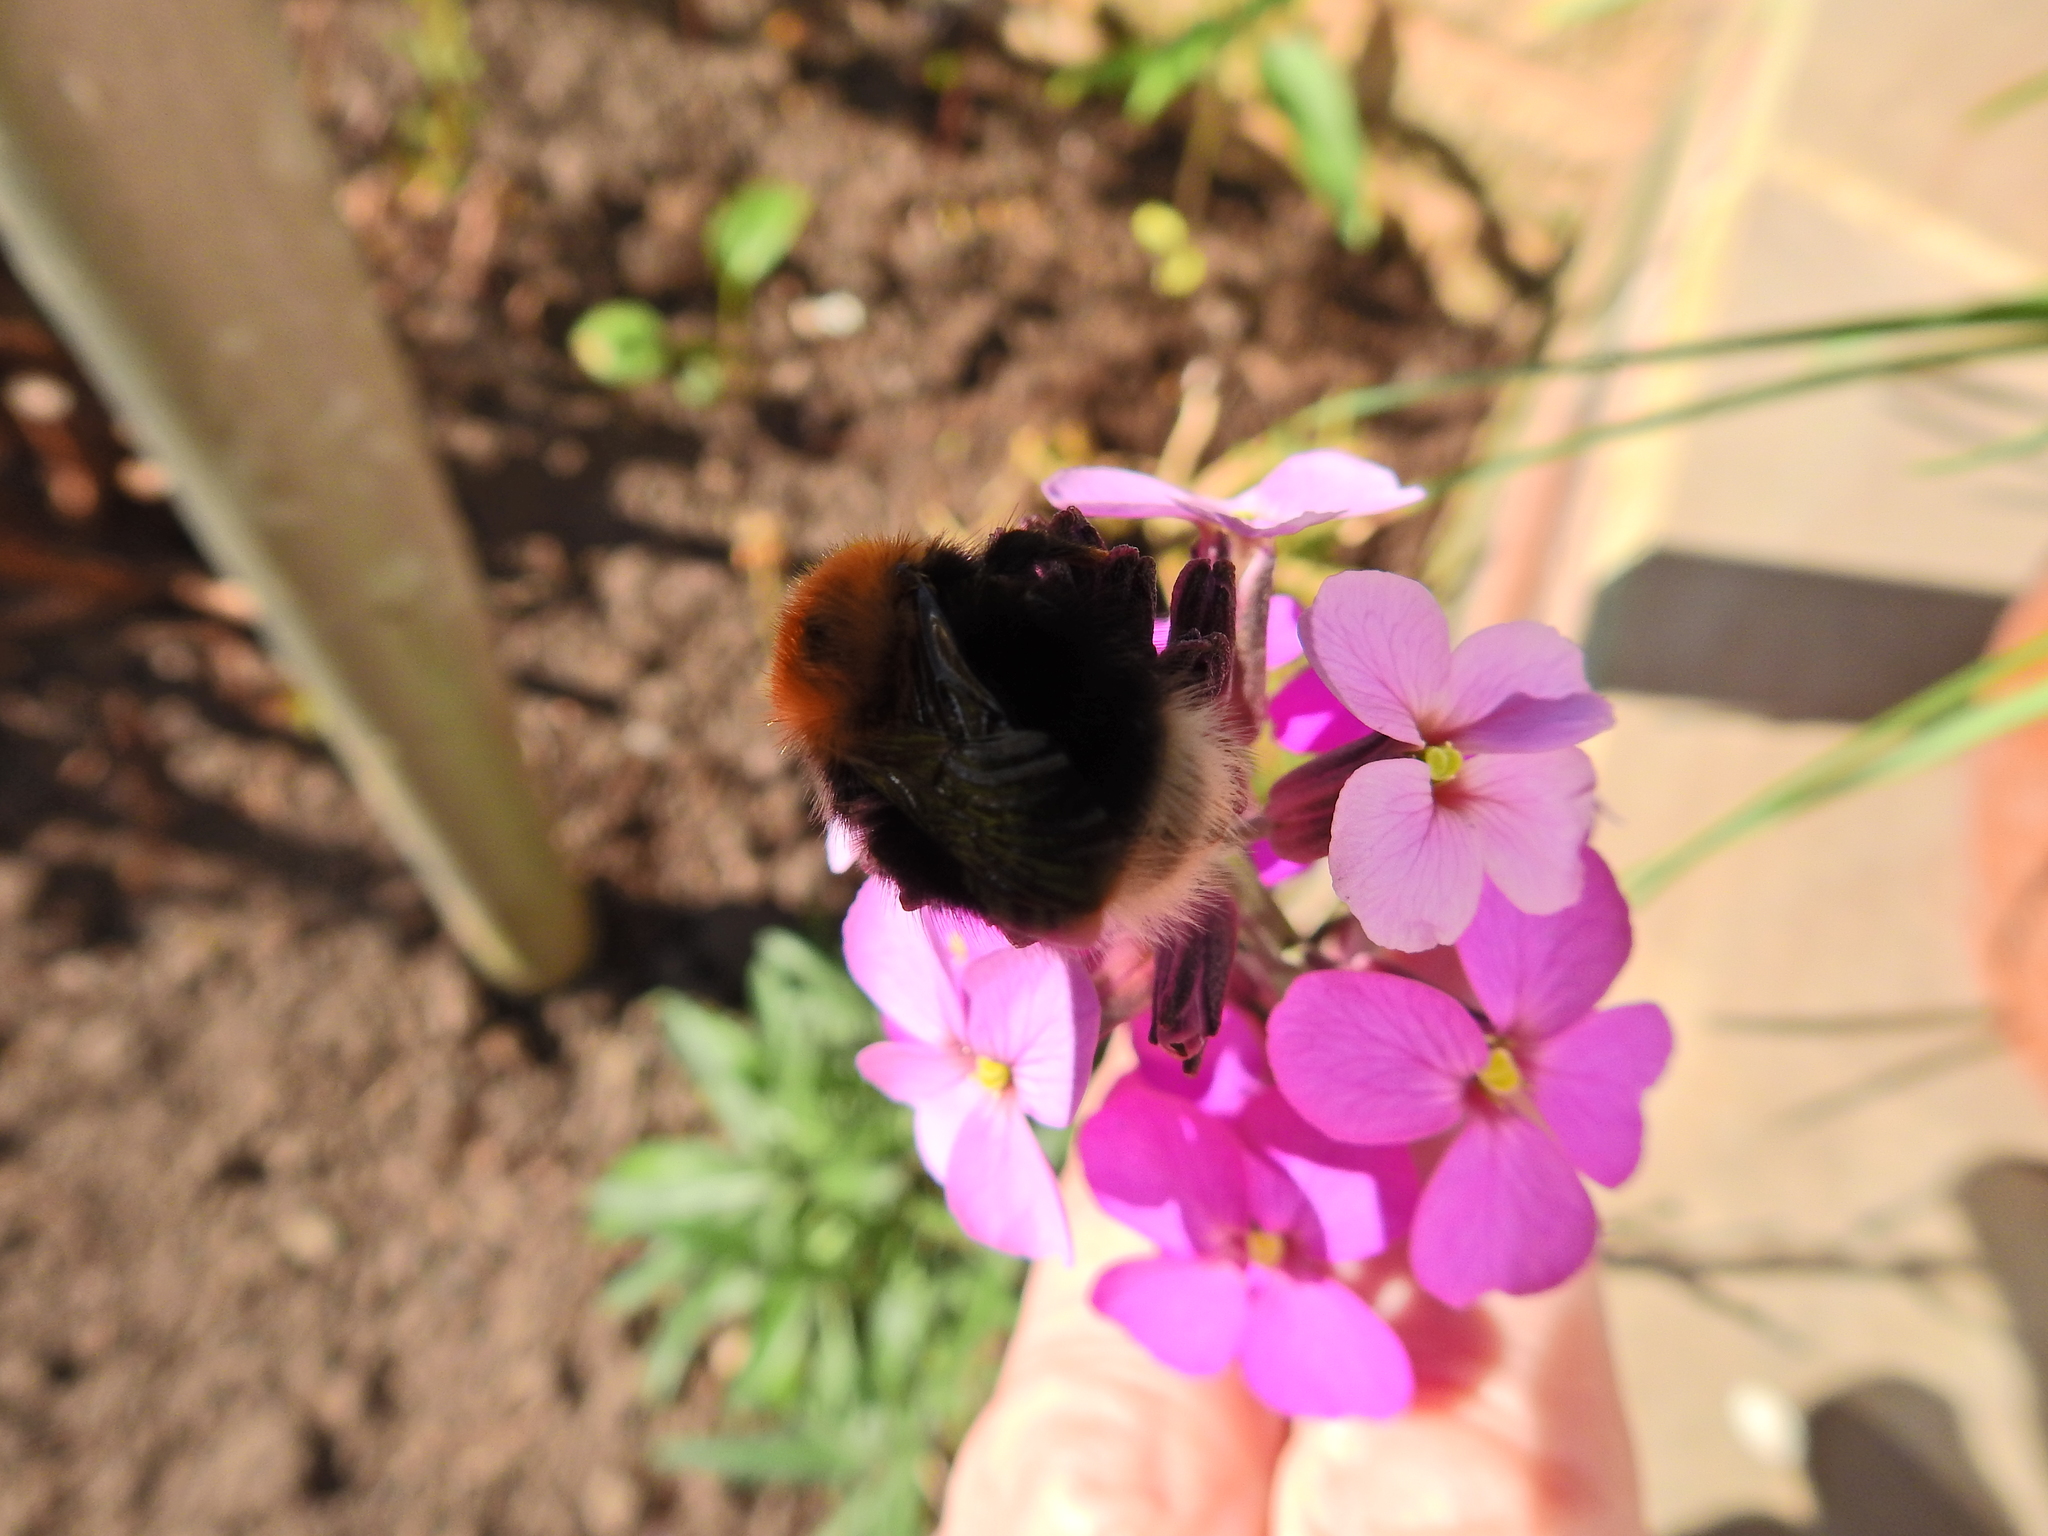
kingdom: Animalia
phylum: Arthropoda
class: Insecta
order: Hymenoptera
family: Apidae
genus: Bombus
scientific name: Bombus hypnorum
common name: New garden bumblebee
